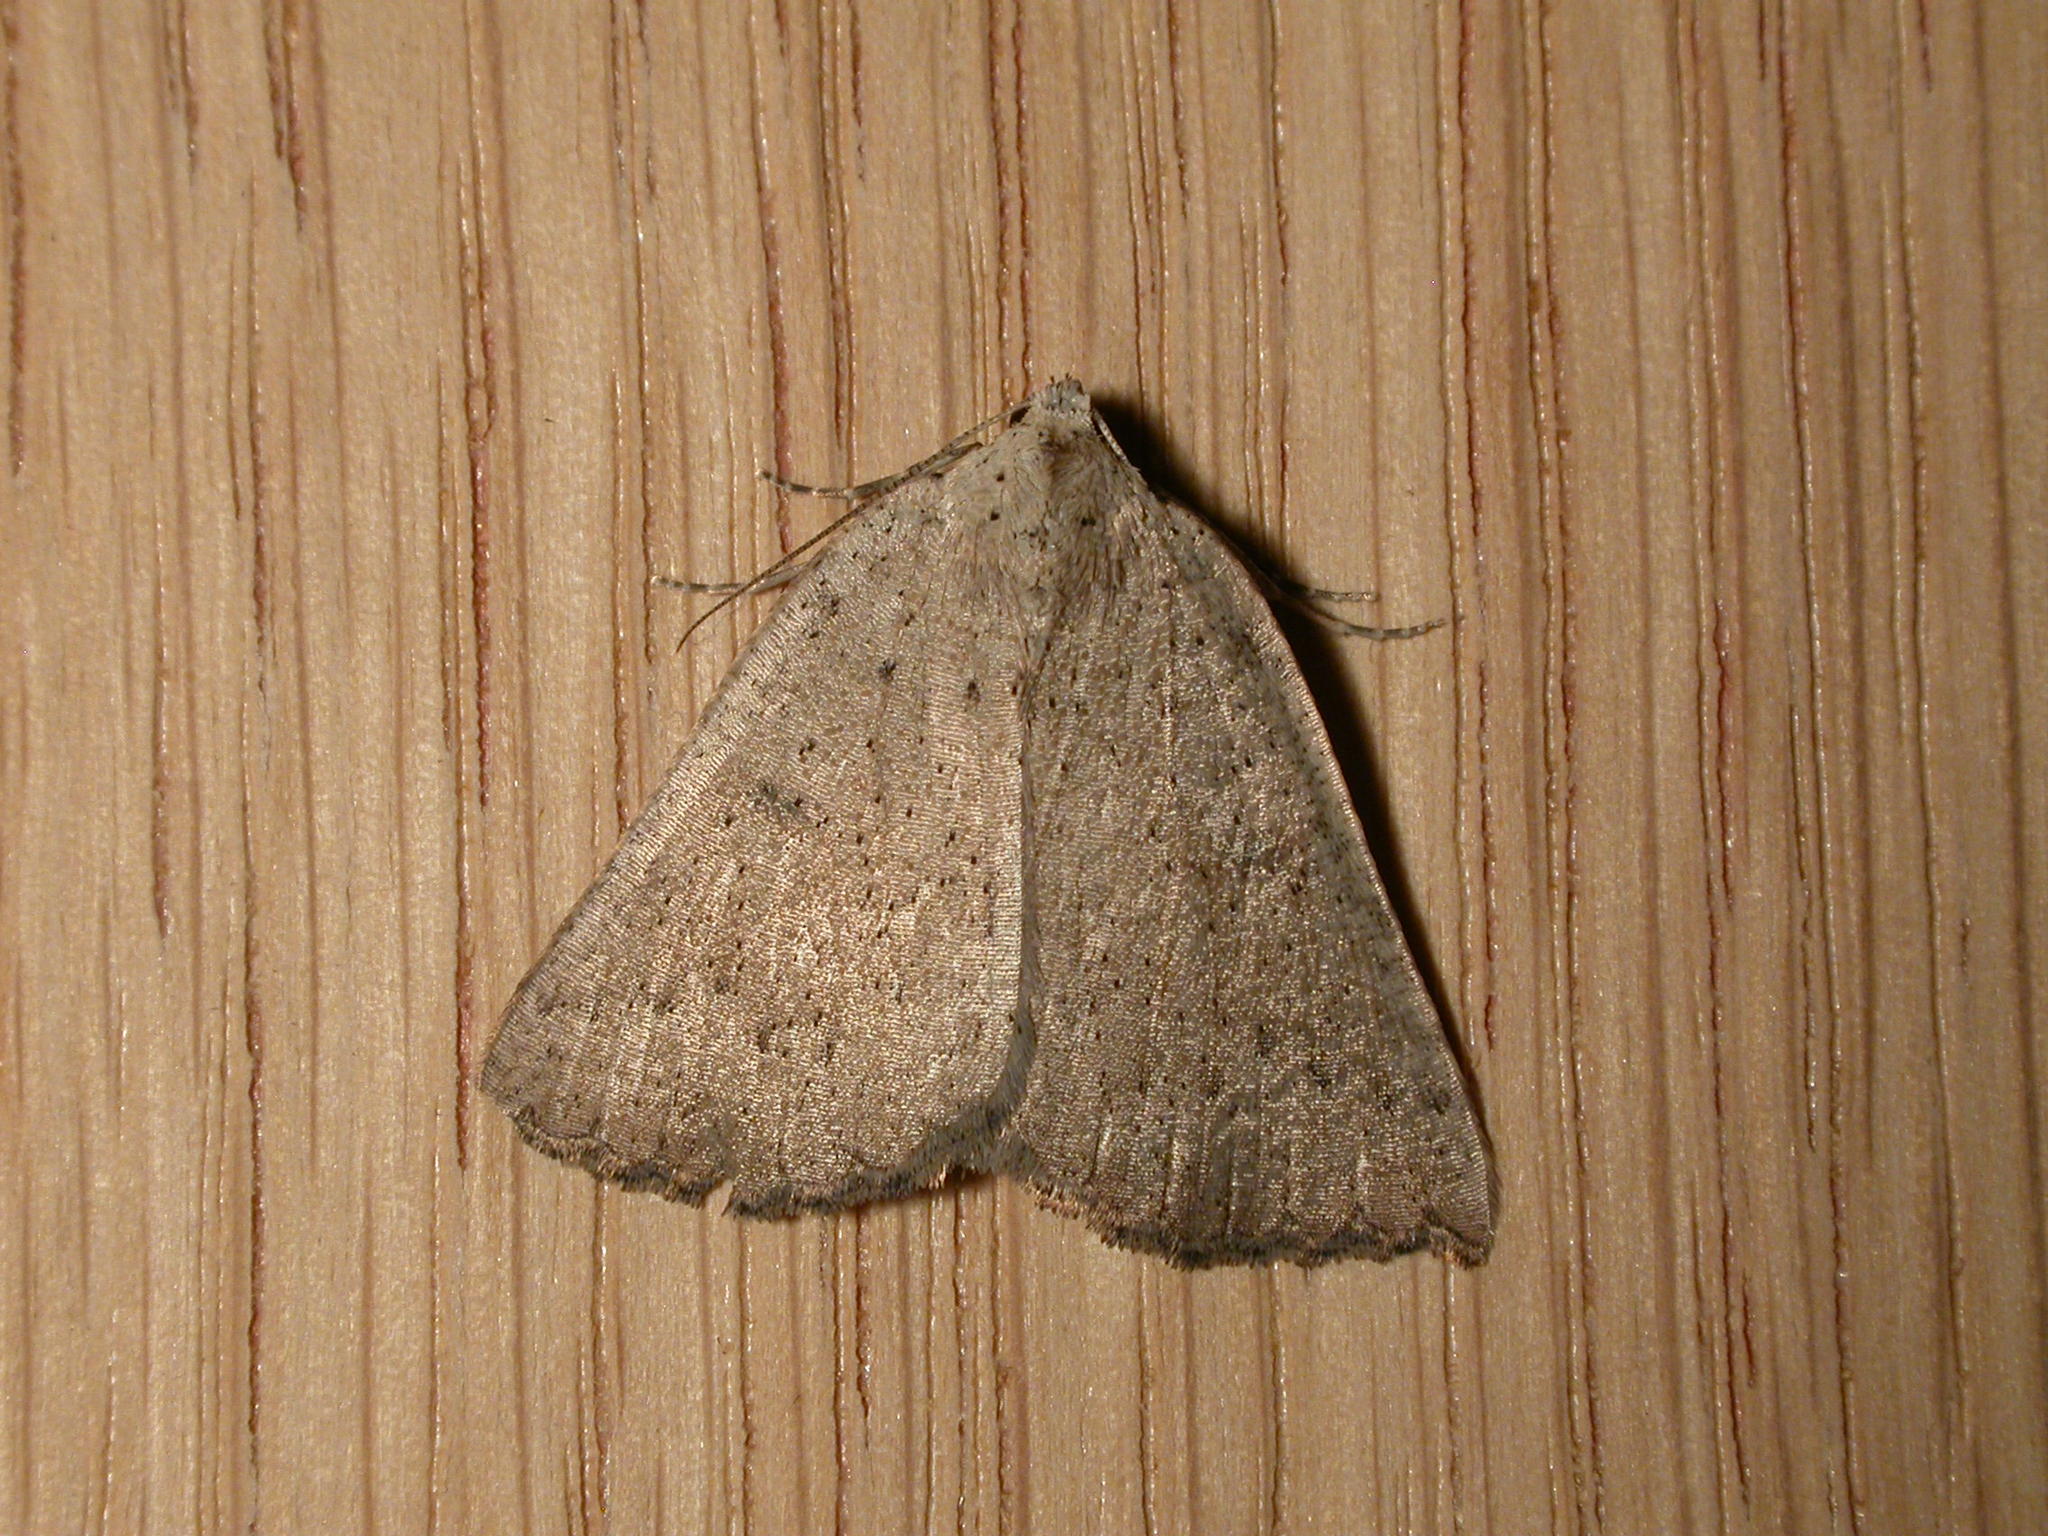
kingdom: Animalia
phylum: Arthropoda
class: Insecta
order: Lepidoptera
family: Geometridae
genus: Amelora
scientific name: Amelora demistis
